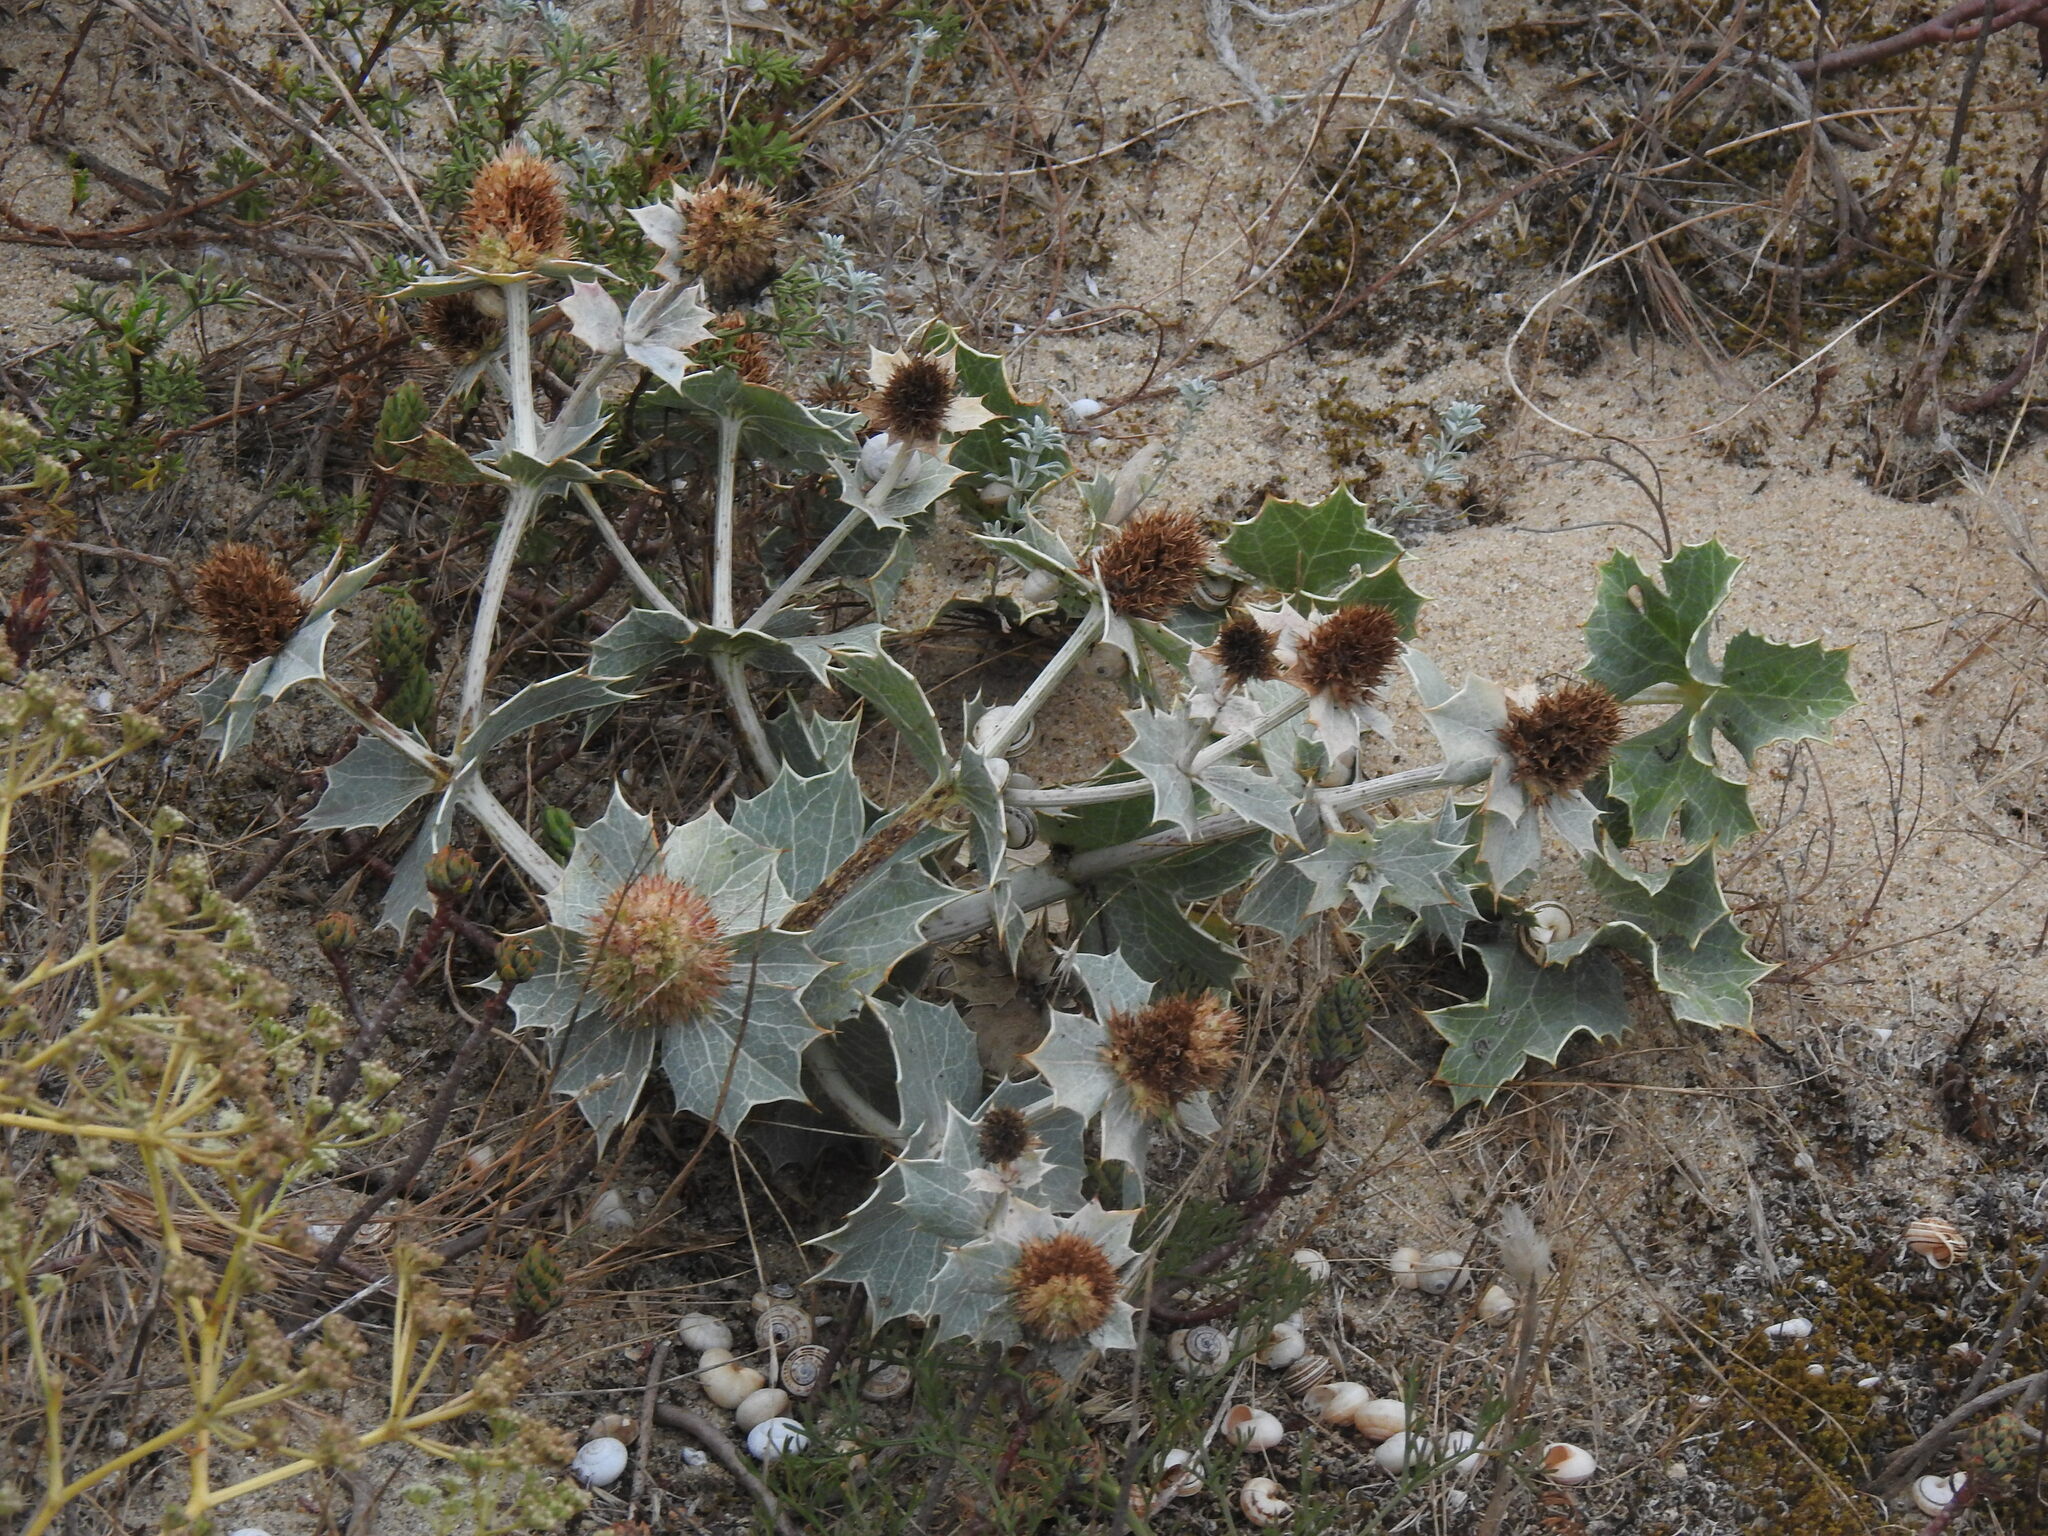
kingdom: Plantae
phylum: Tracheophyta
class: Magnoliopsida
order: Apiales
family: Apiaceae
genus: Eryngium
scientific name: Eryngium maritimum
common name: Sea-holly
